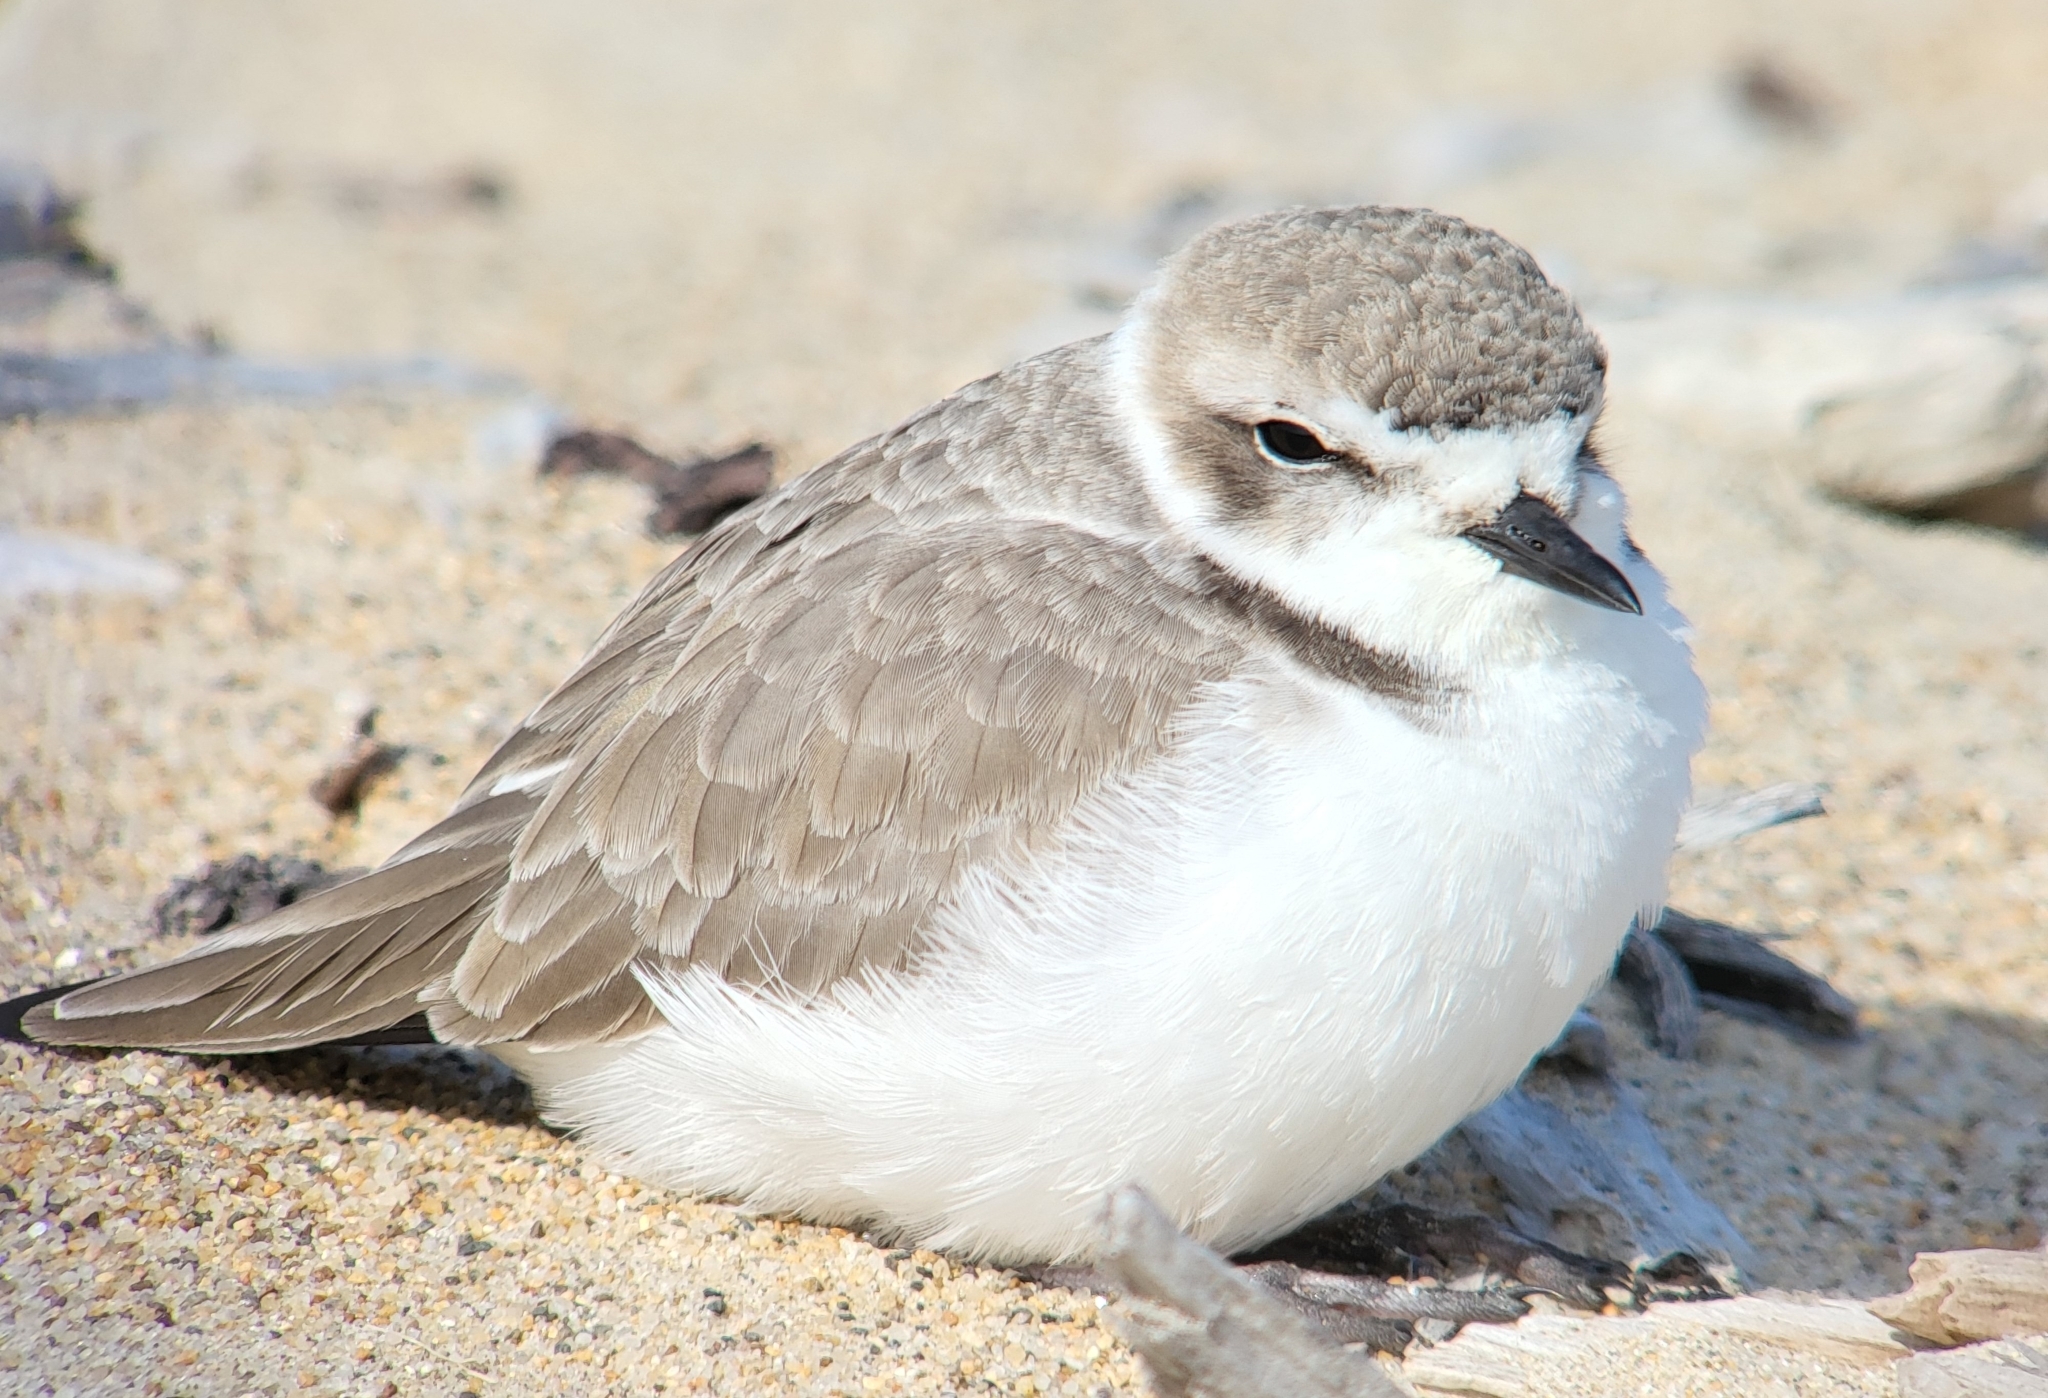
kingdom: Animalia
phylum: Chordata
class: Aves
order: Charadriiformes
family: Charadriidae
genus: Anarhynchus
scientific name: Anarhynchus
